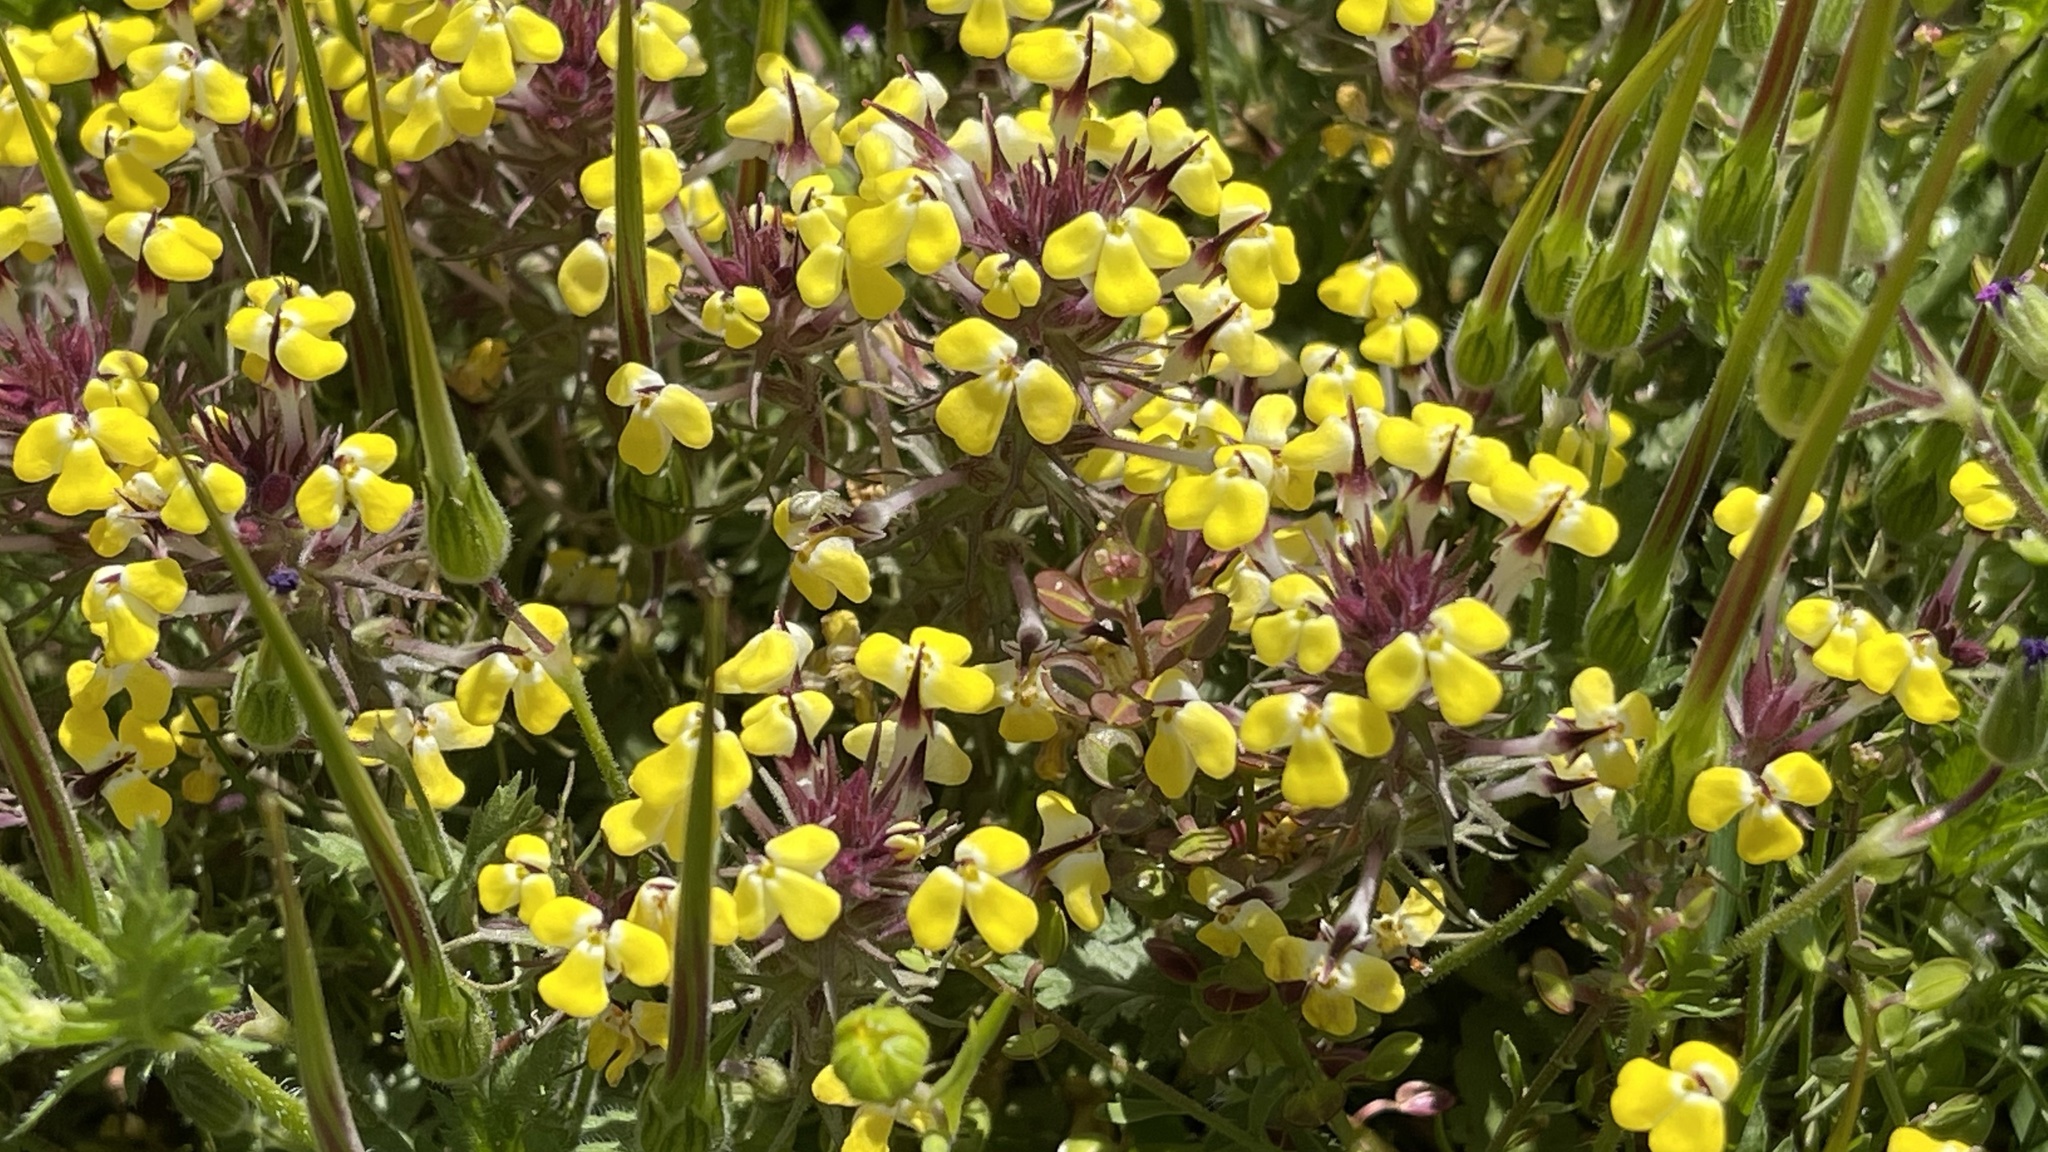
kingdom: Plantae
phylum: Tracheophyta
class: Magnoliopsida
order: Lamiales
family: Orobanchaceae
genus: Triphysaria
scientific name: Triphysaria eriantha
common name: Johnny-tuck
